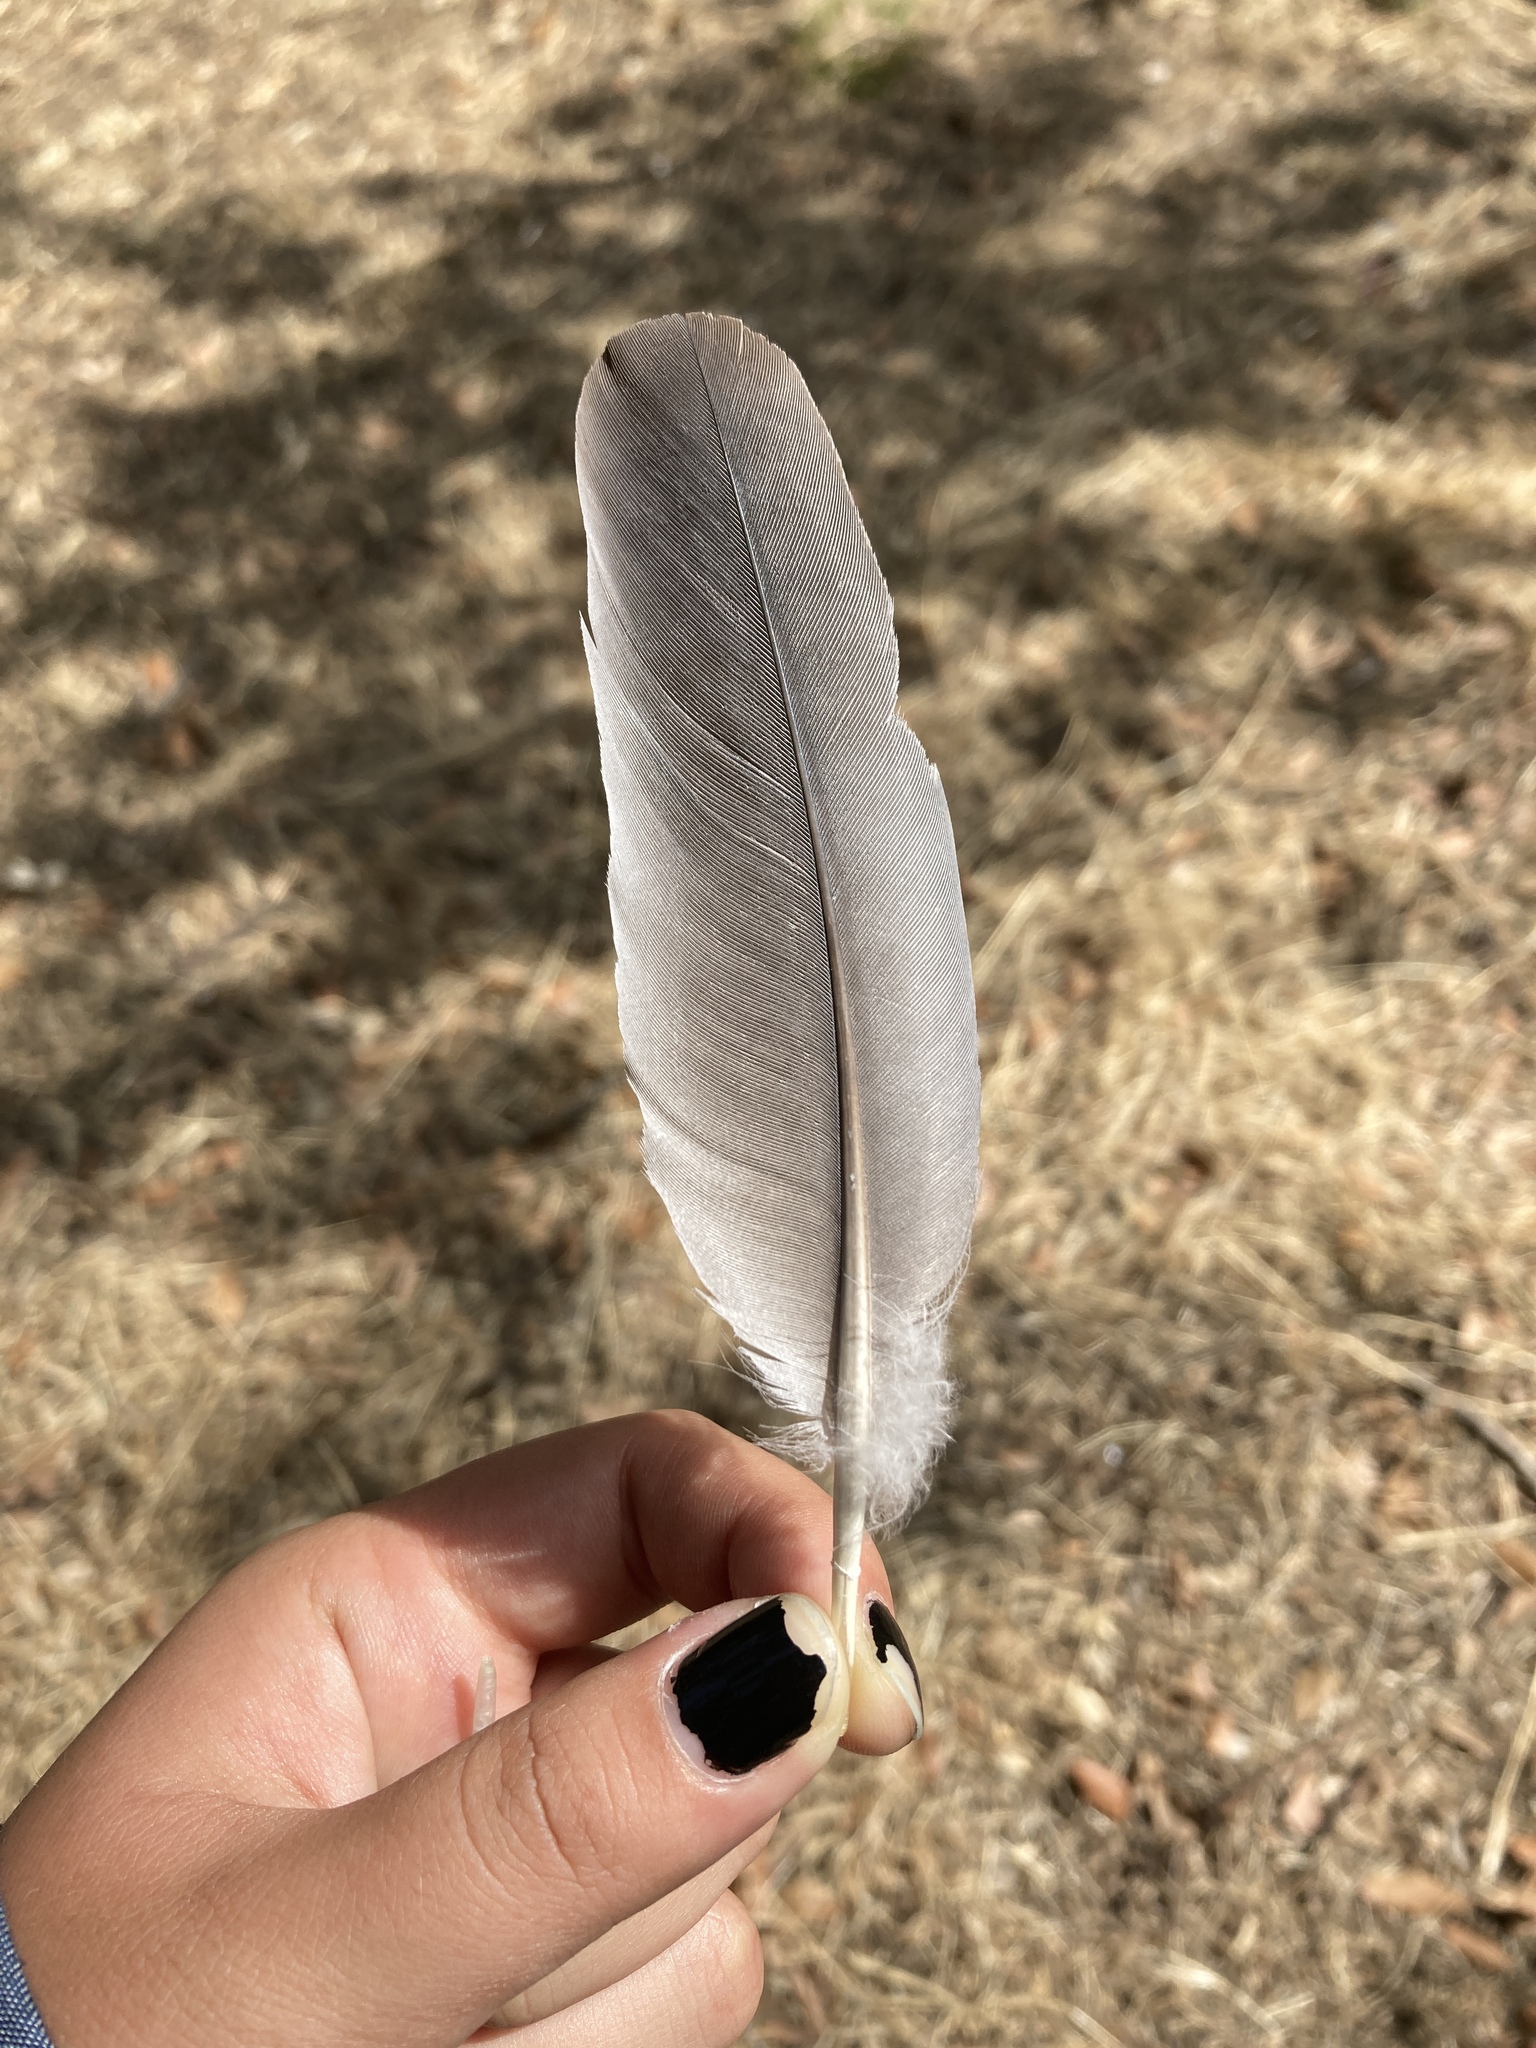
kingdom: Animalia
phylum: Chordata
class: Aves
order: Columbiformes
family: Columbidae
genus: Columba
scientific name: Columba palumbus
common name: Common wood pigeon
